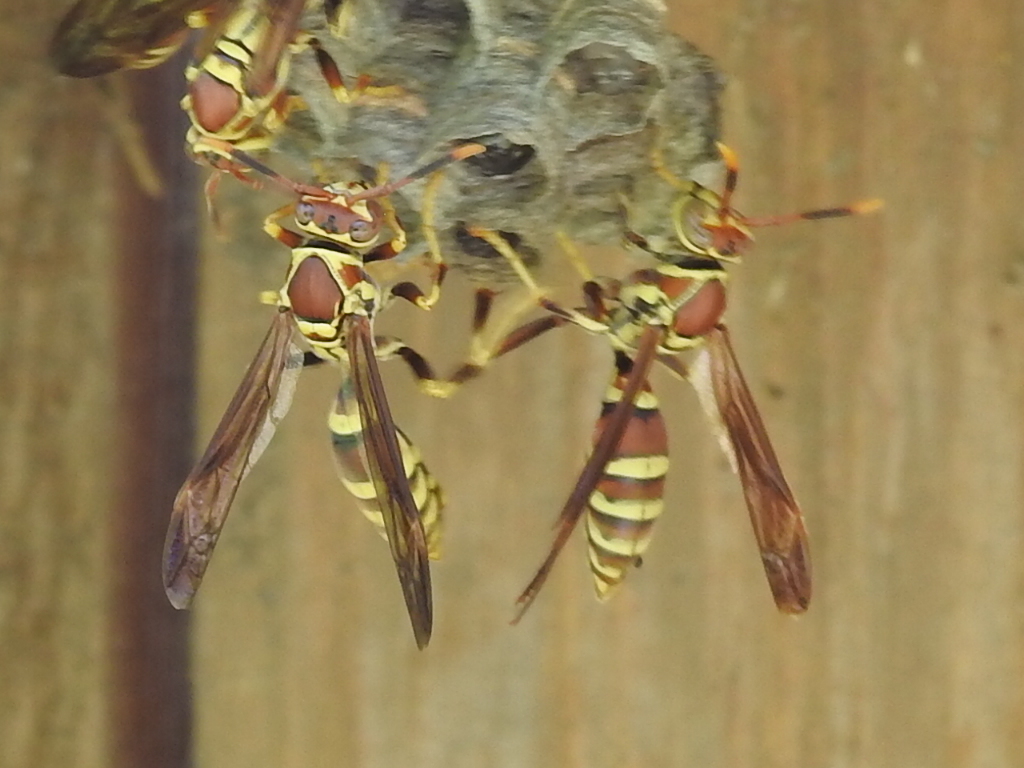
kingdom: Animalia
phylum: Arthropoda
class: Insecta
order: Hymenoptera
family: Eumenidae
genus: Polistes
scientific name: Polistes exclamans
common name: Paper wasp
